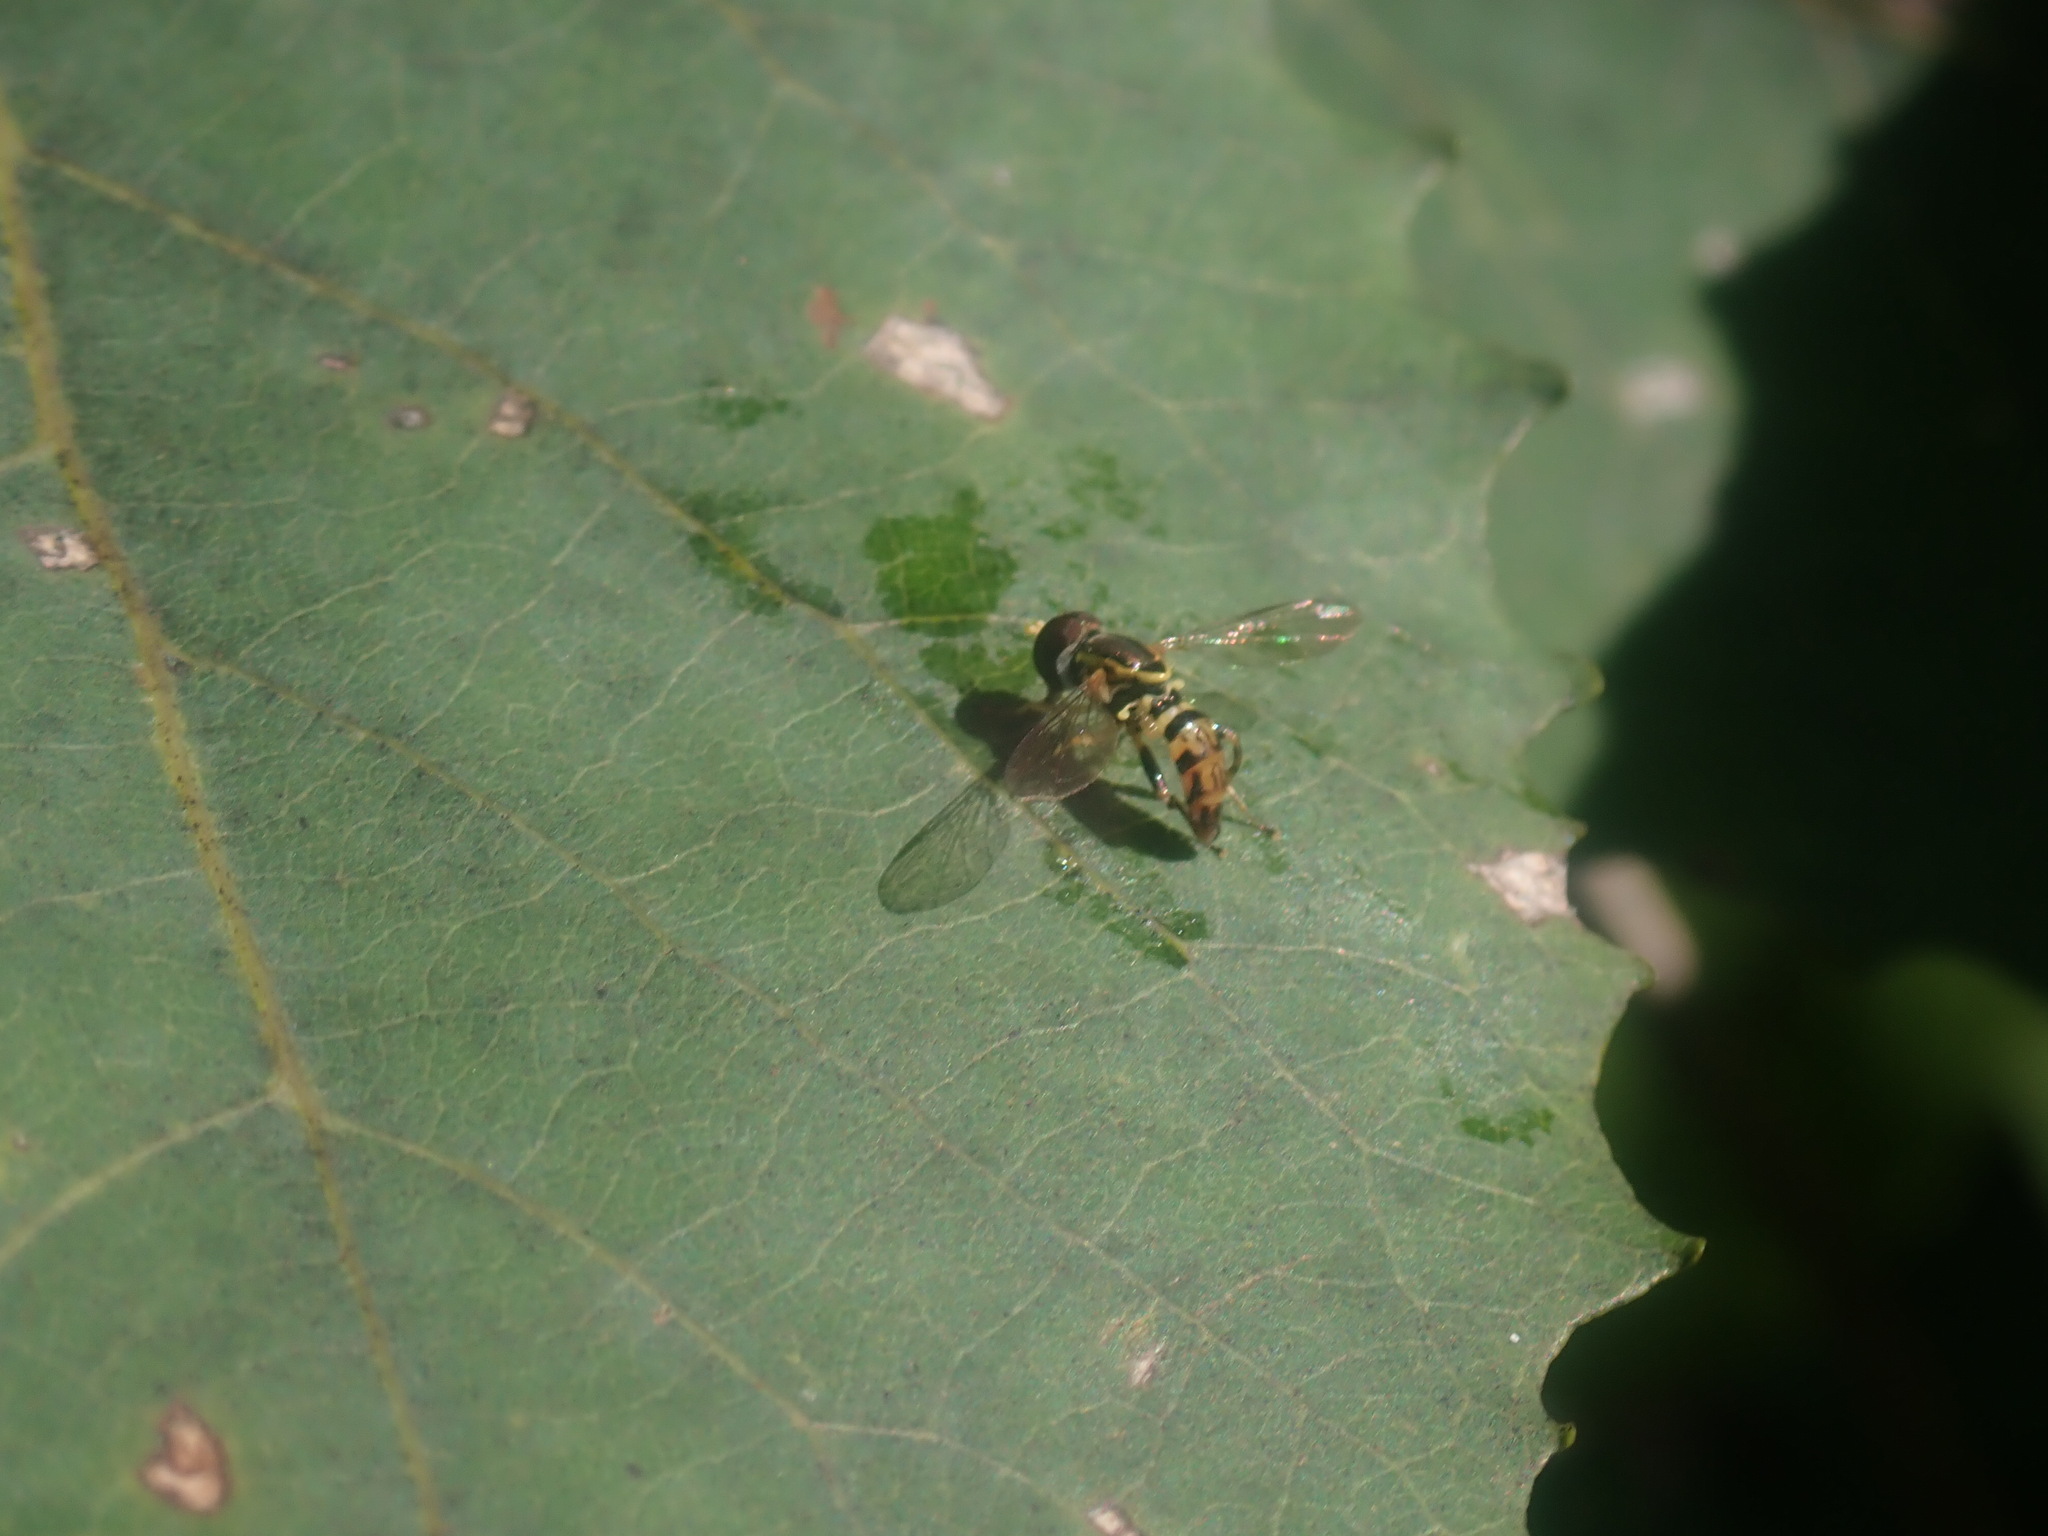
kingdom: Animalia
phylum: Arthropoda
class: Insecta
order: Diptera
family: Syrphidae
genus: Toxomerus
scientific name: Toxomerus geminatus
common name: Eastern calligrapher
